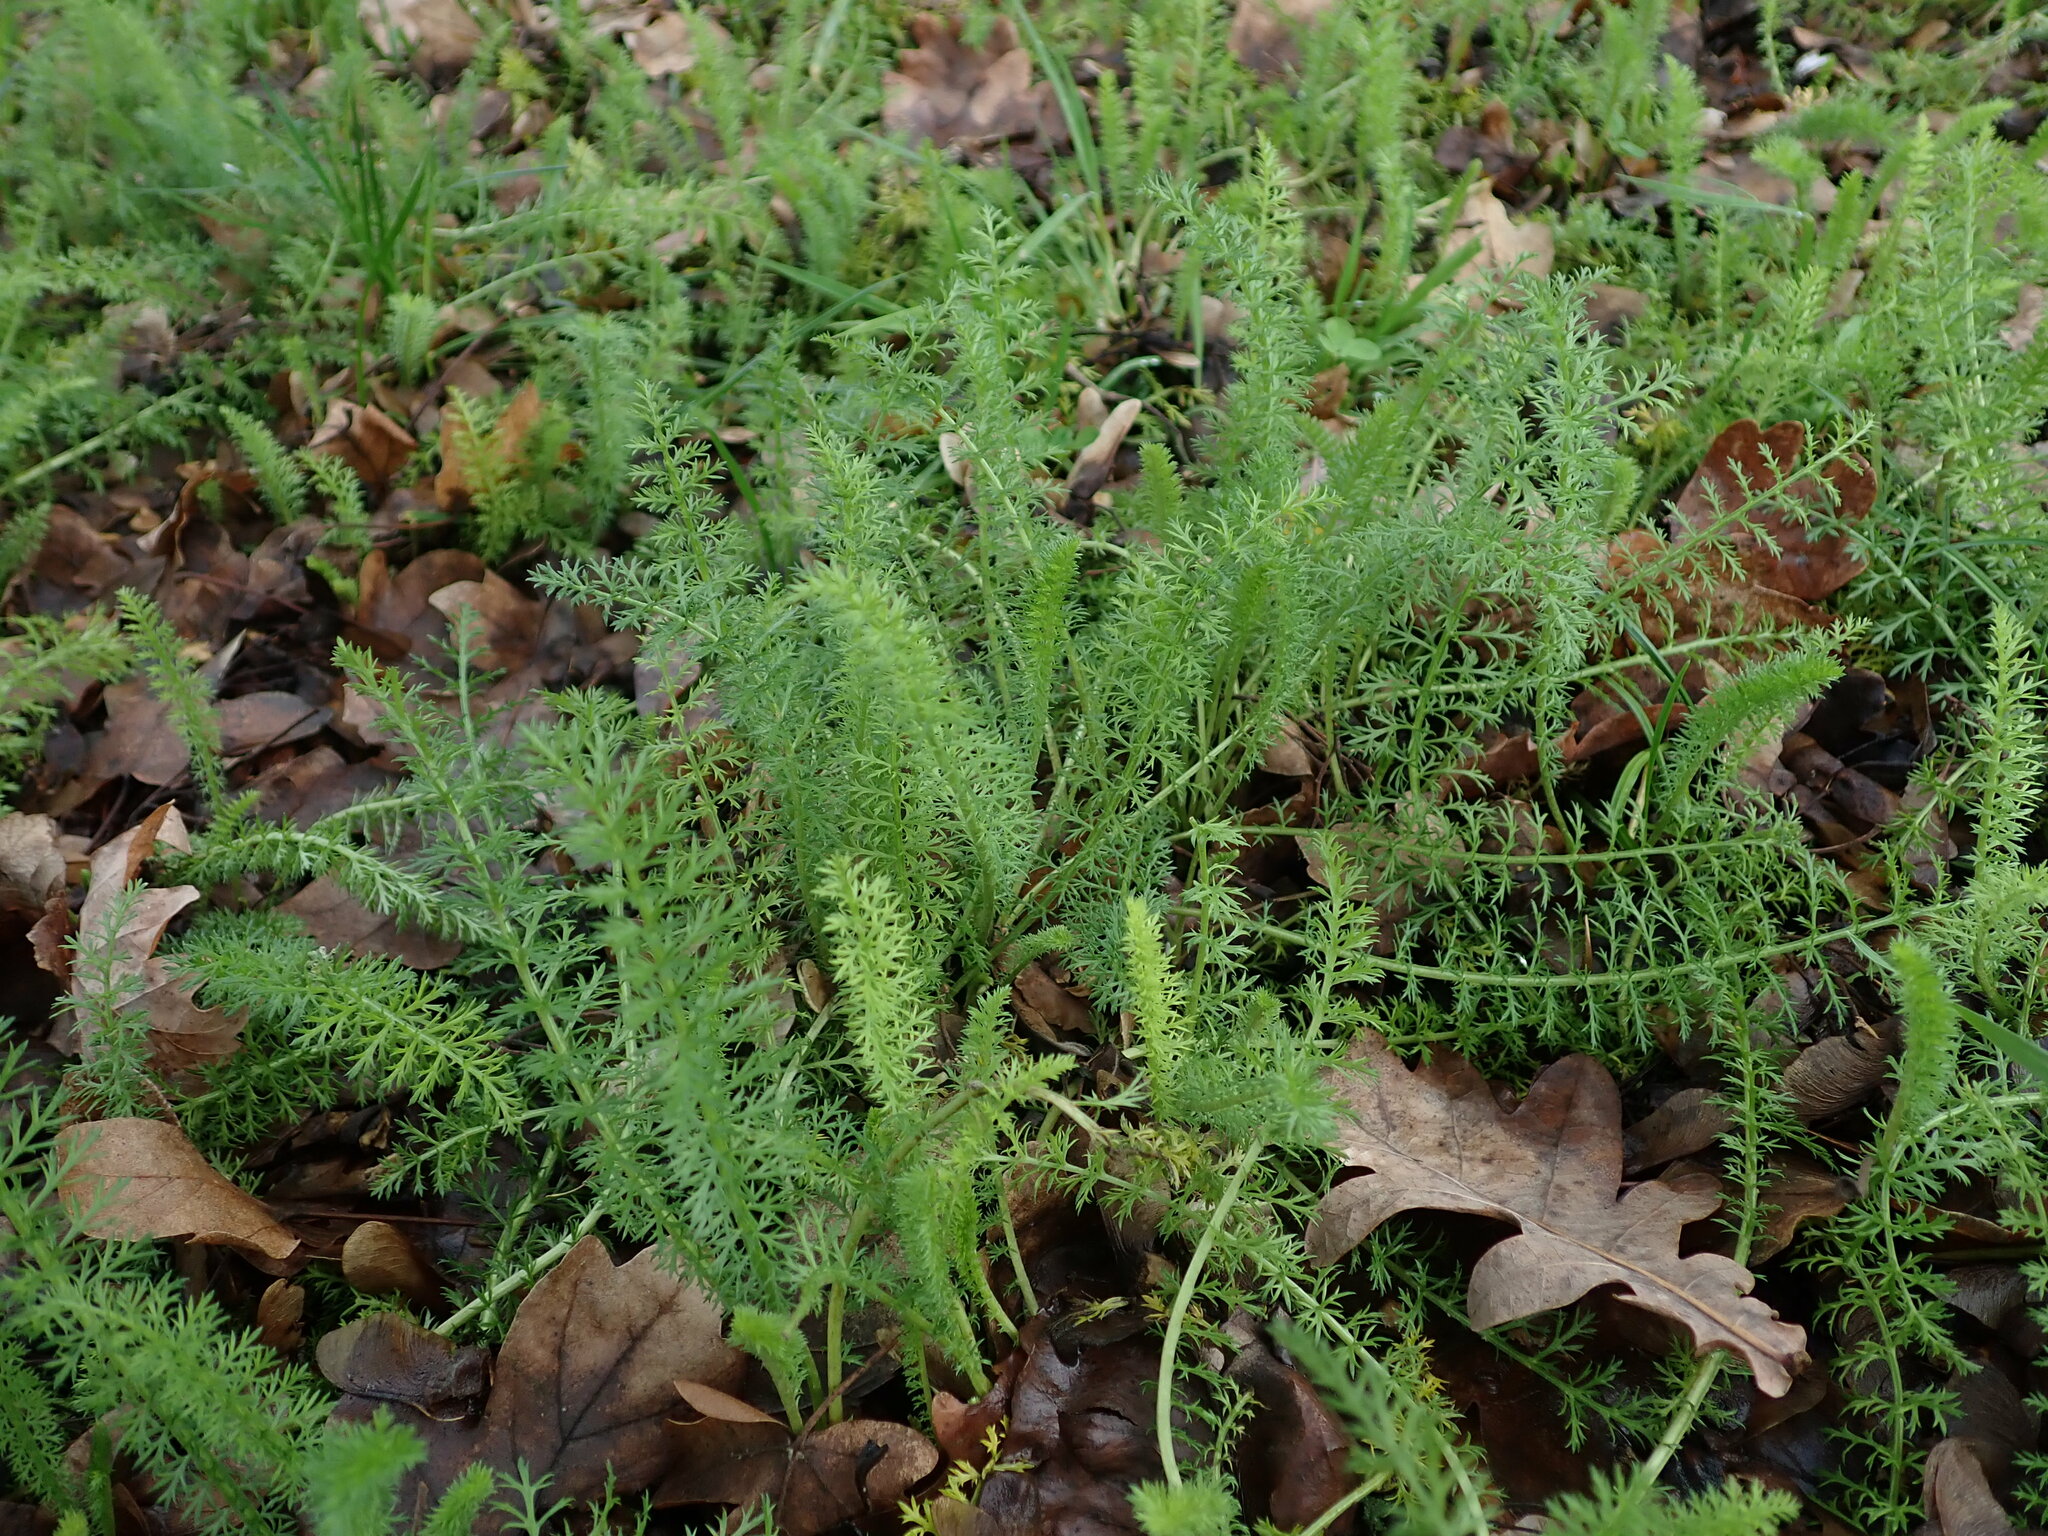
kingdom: Plantae
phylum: Tracheophyta
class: Magnoliopsida
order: Asterales
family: Asteraceae
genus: Achillea
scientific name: Achillea millefolium
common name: Yarrow
